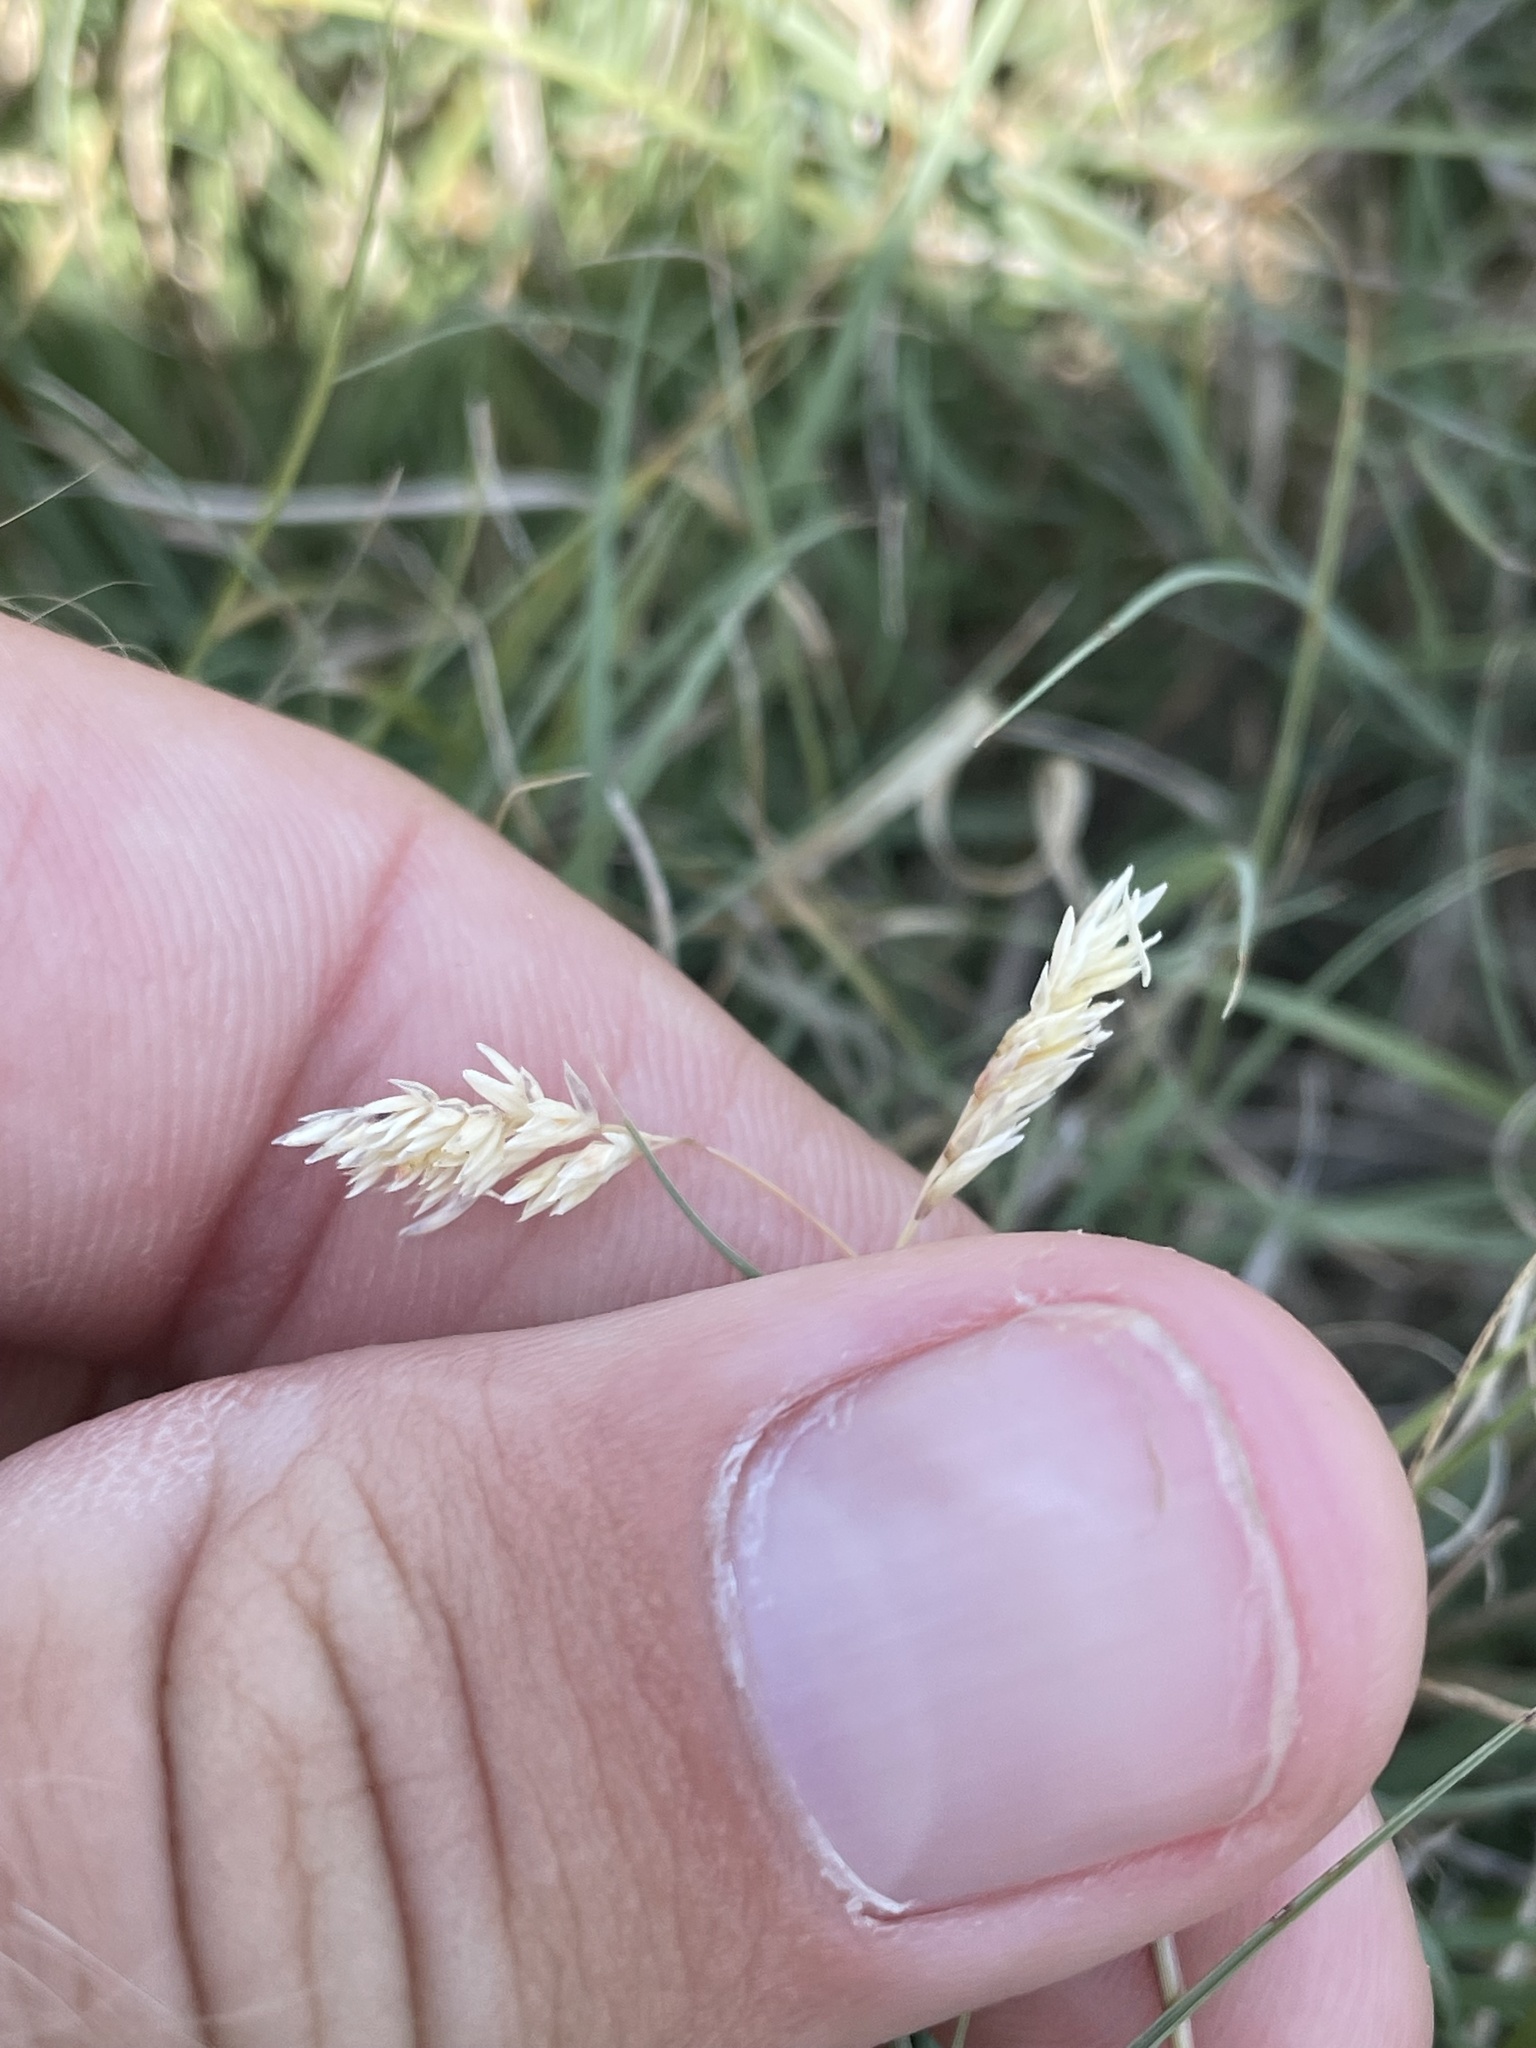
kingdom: Plantae
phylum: Tracheophyta
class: Liliopsida
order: Poales
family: Poaceae
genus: Bouteloua
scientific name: Bouteloua dactyloides
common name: Buffalo grass
